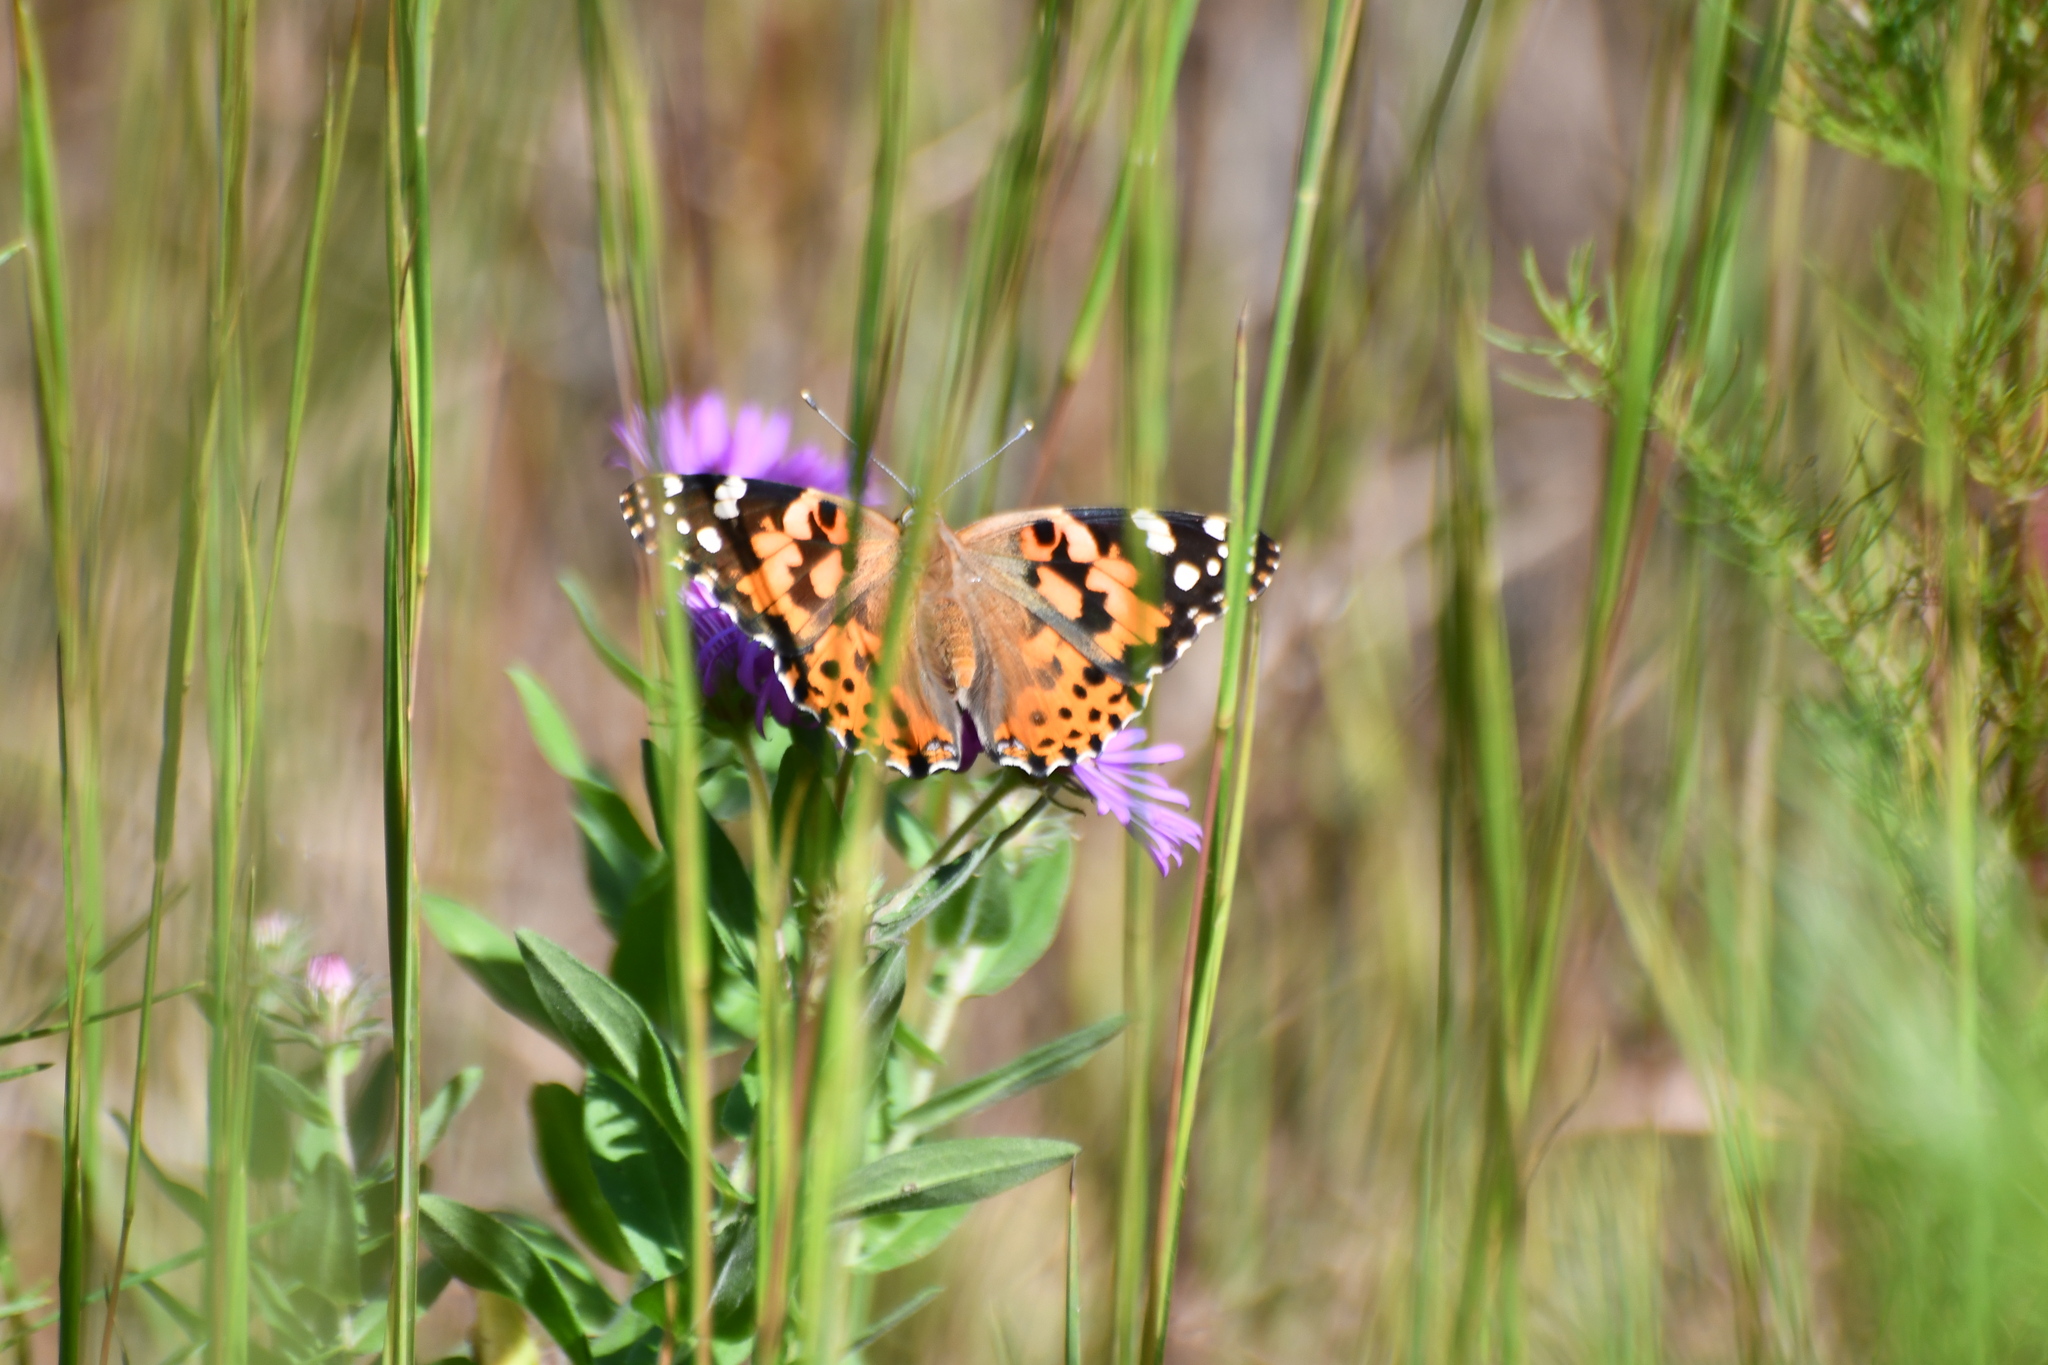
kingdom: Animalia
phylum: Arthropoda
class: Insecta
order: Lepidoptera
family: Nymphalidae
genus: Vanessa
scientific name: Vanessa cardui
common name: Painted lady
